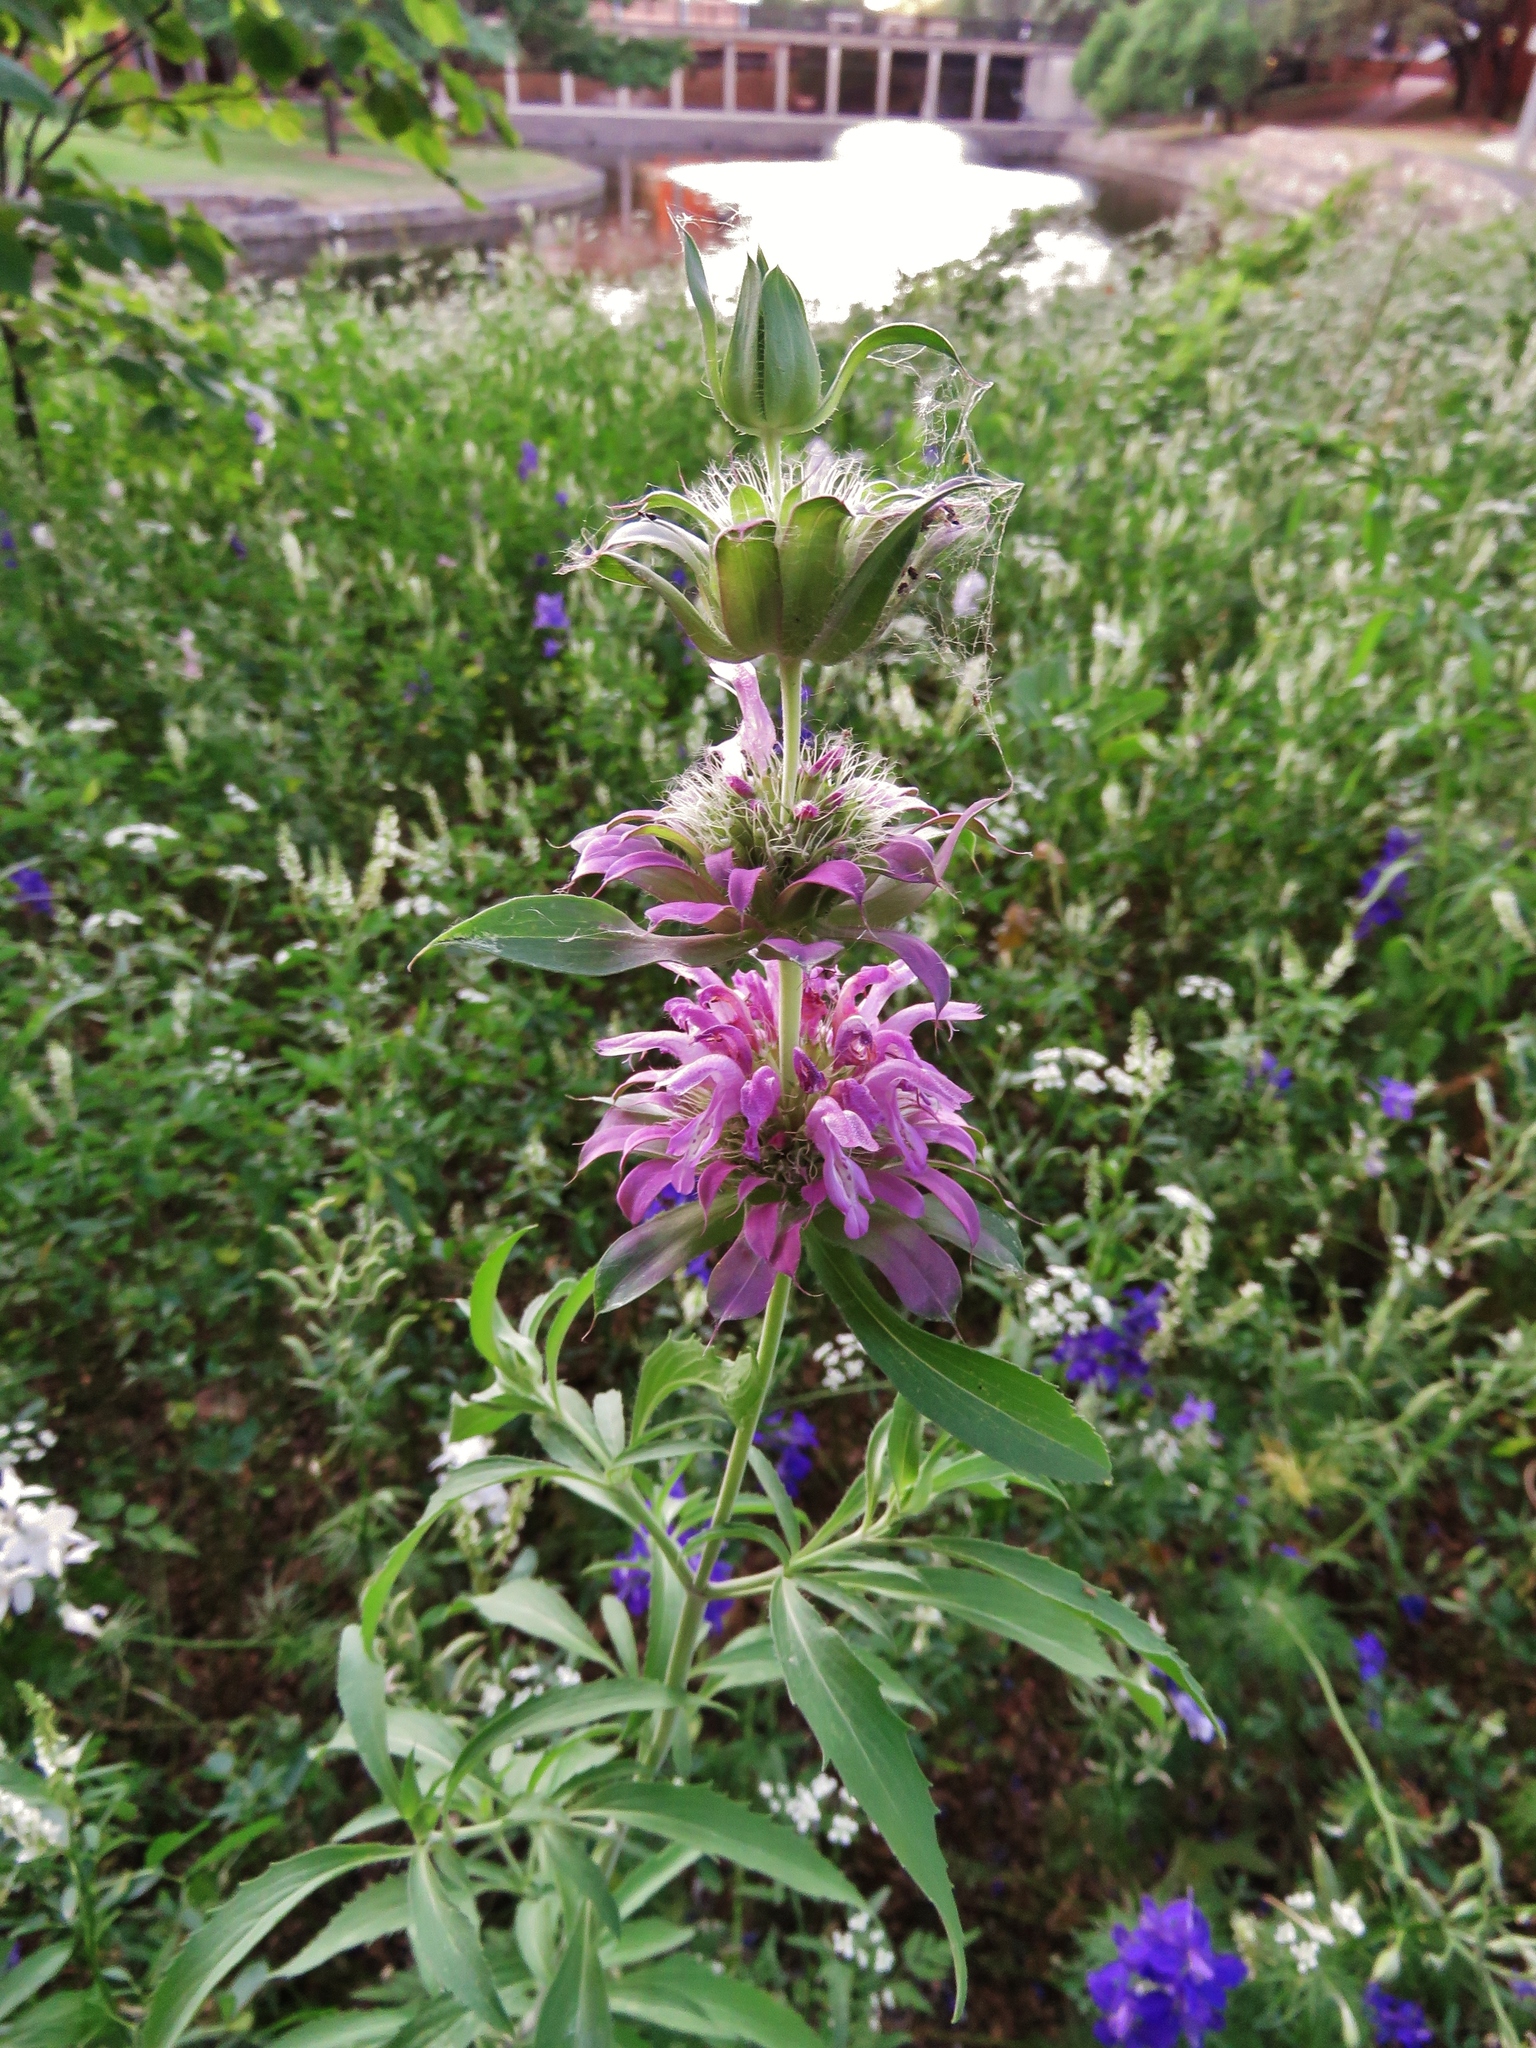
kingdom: Plantae
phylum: Tracheophyta
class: Magnoliopsida
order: Lamiales
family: Lamiaceae
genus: Monarda
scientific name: Monarda citriodora
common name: Lemon beebalm
